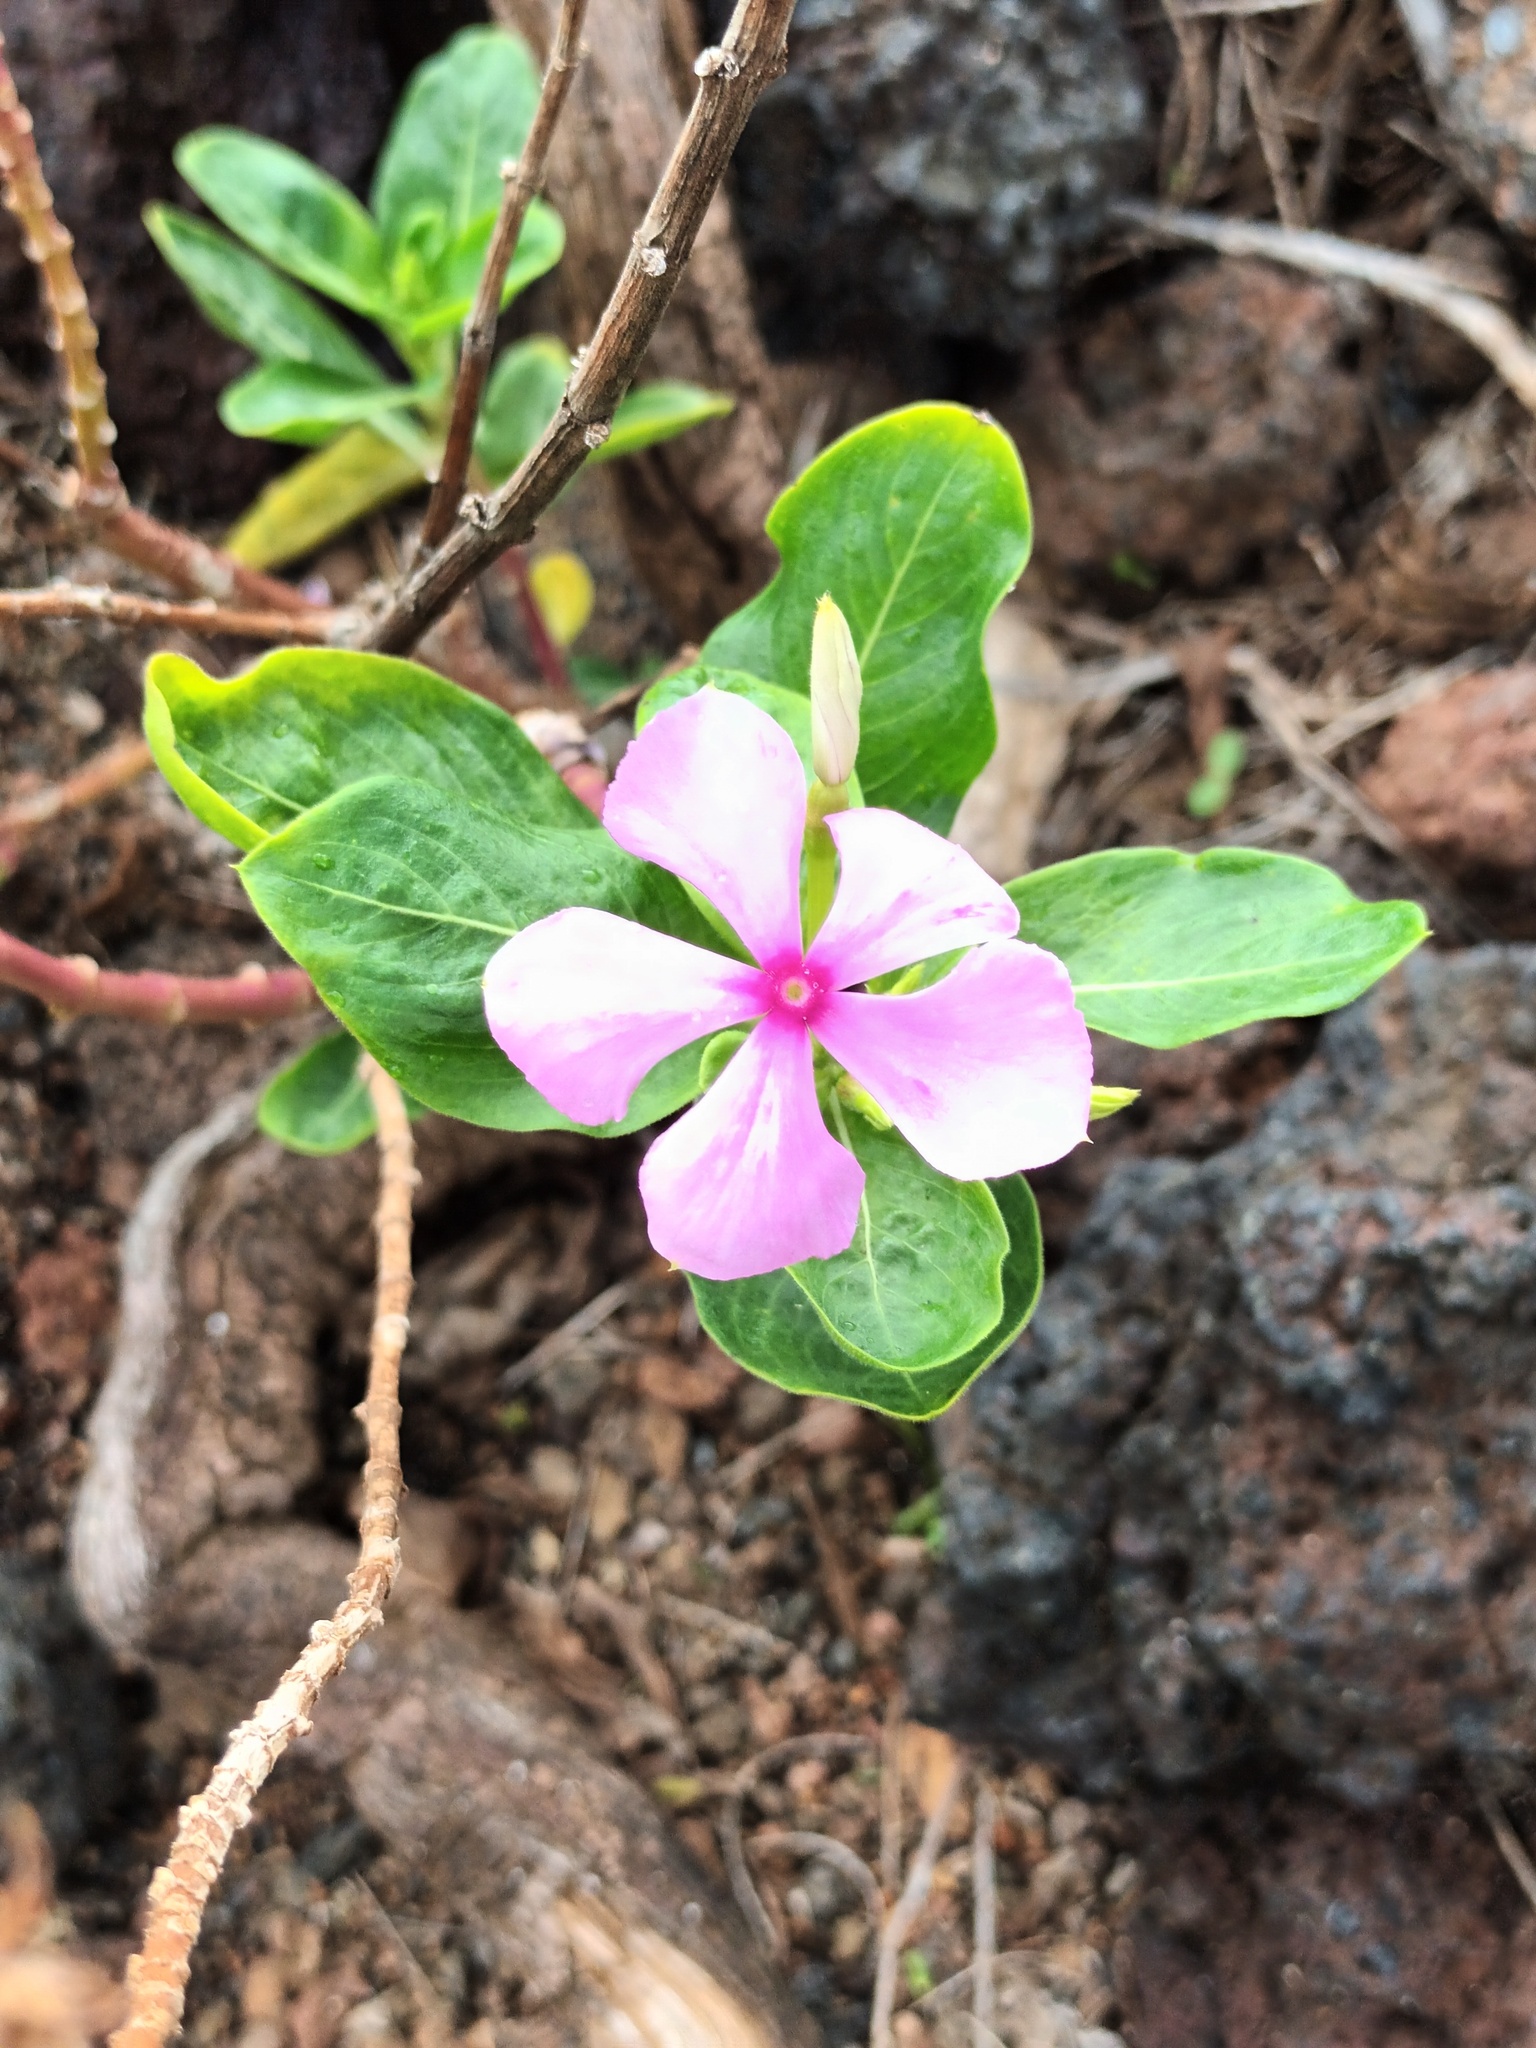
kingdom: Plantae
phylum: Tracheophyta
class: Magnoliopsida
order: Gentianales
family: Apocynaceae
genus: Catharanthus
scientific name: Catharanthus roseus
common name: Madagascar periwinkle
